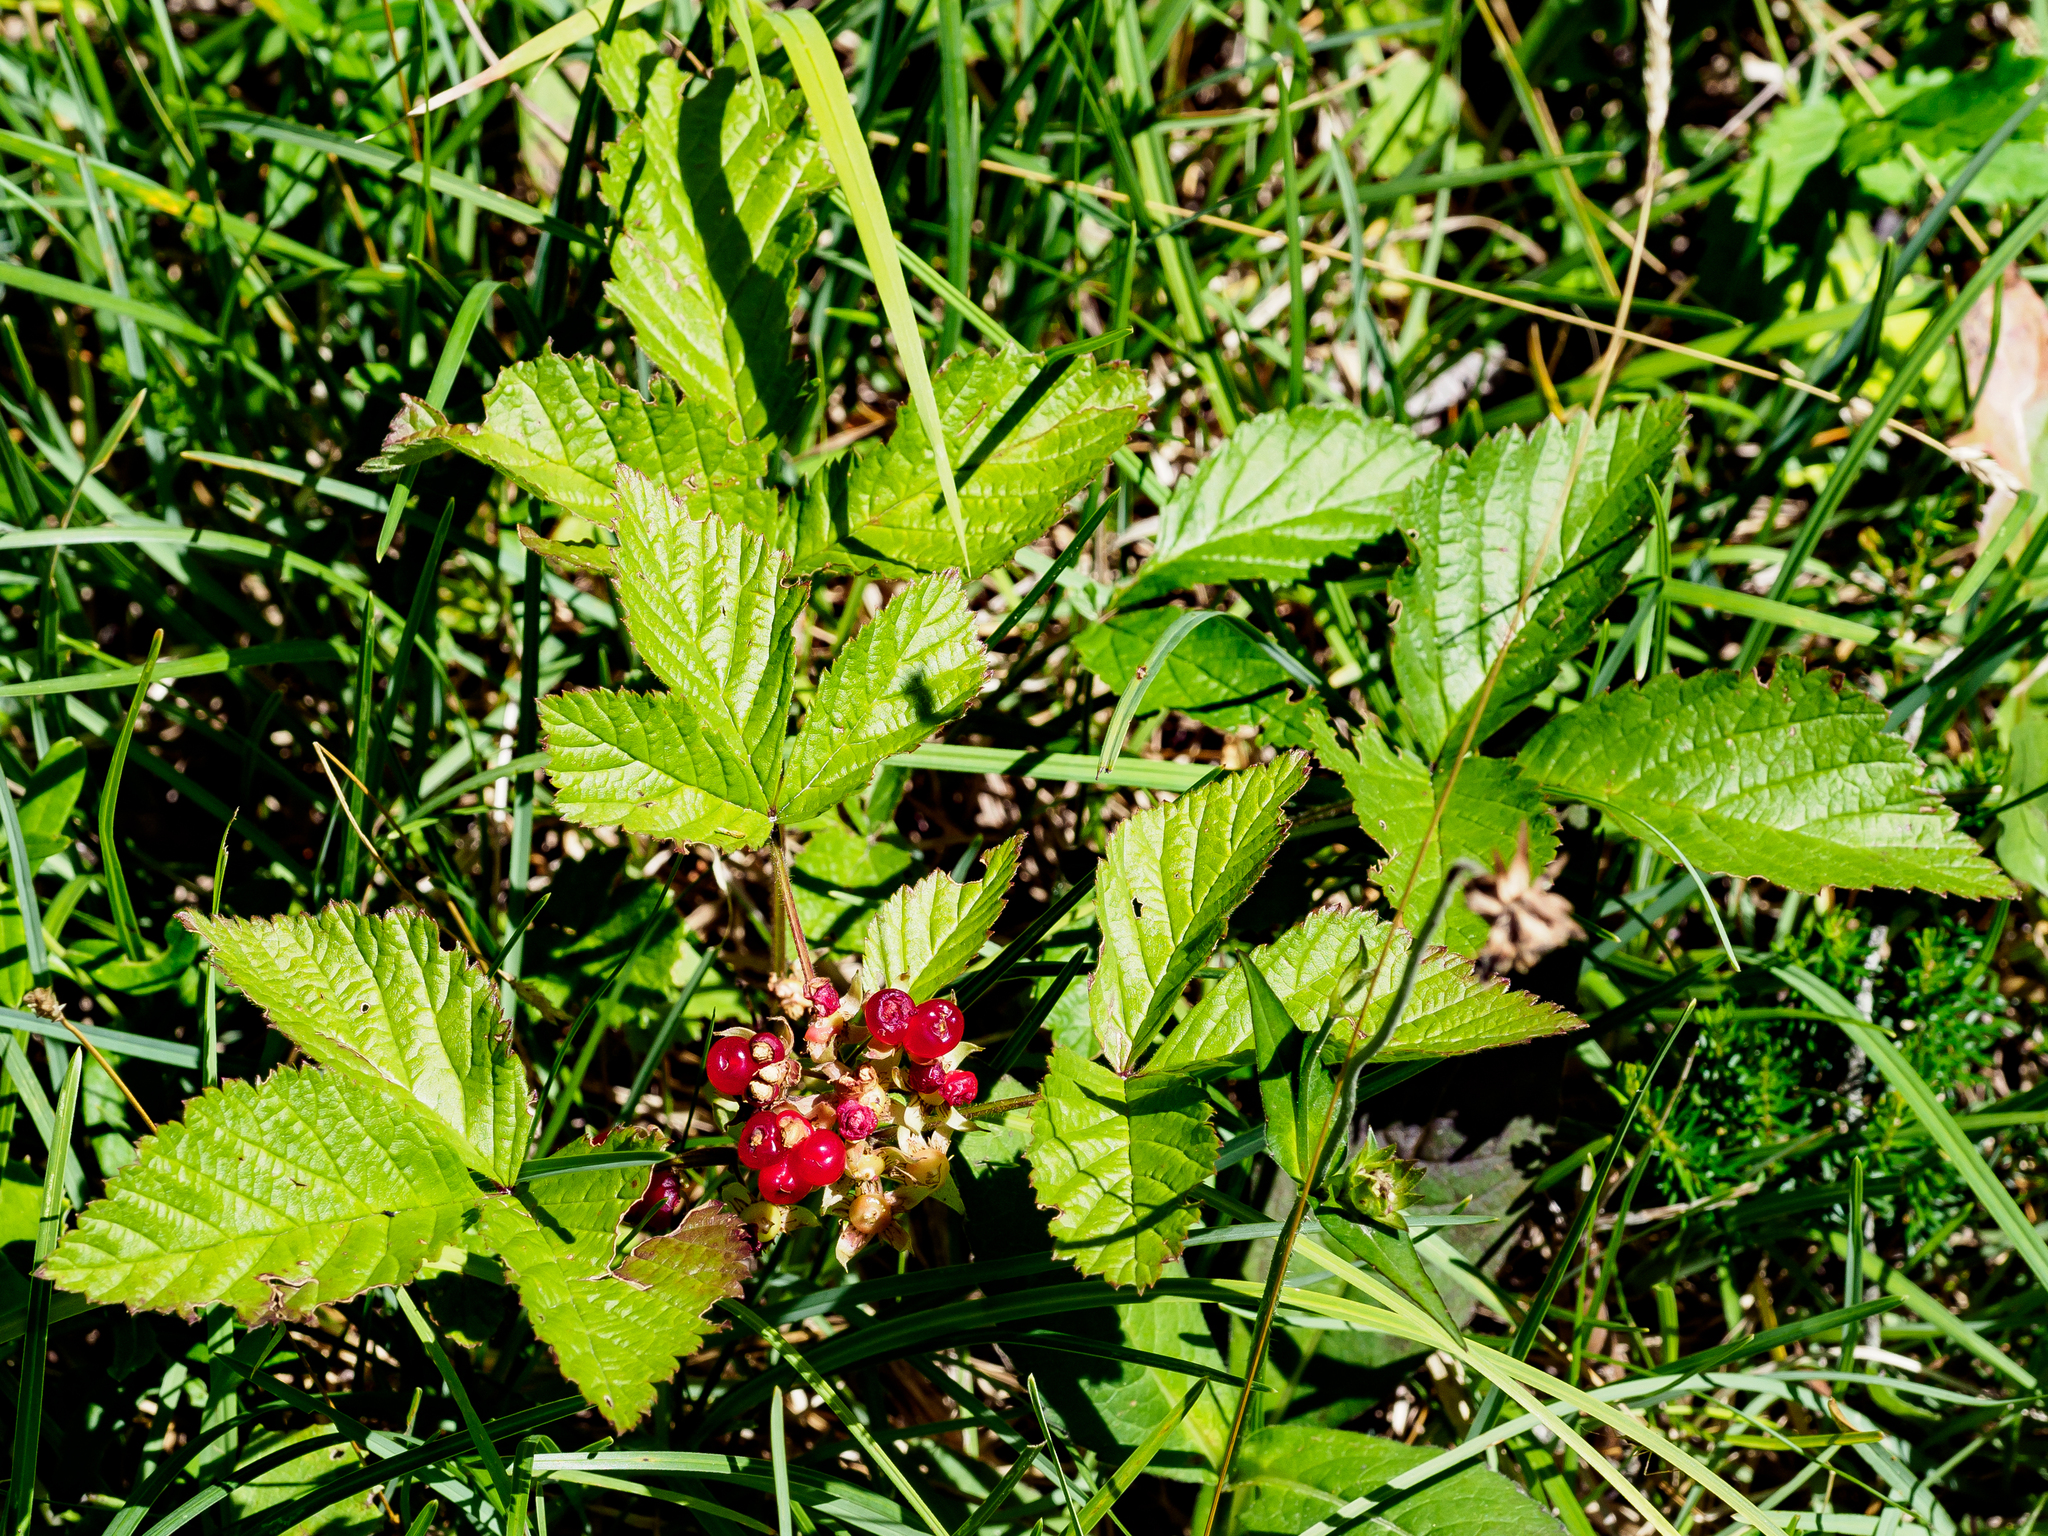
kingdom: Plantae
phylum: Tracheophyta
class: Magnoliopsida
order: Rosales
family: Rosaceae
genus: Rubus
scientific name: Rubus saxatilis
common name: Stone bramble
